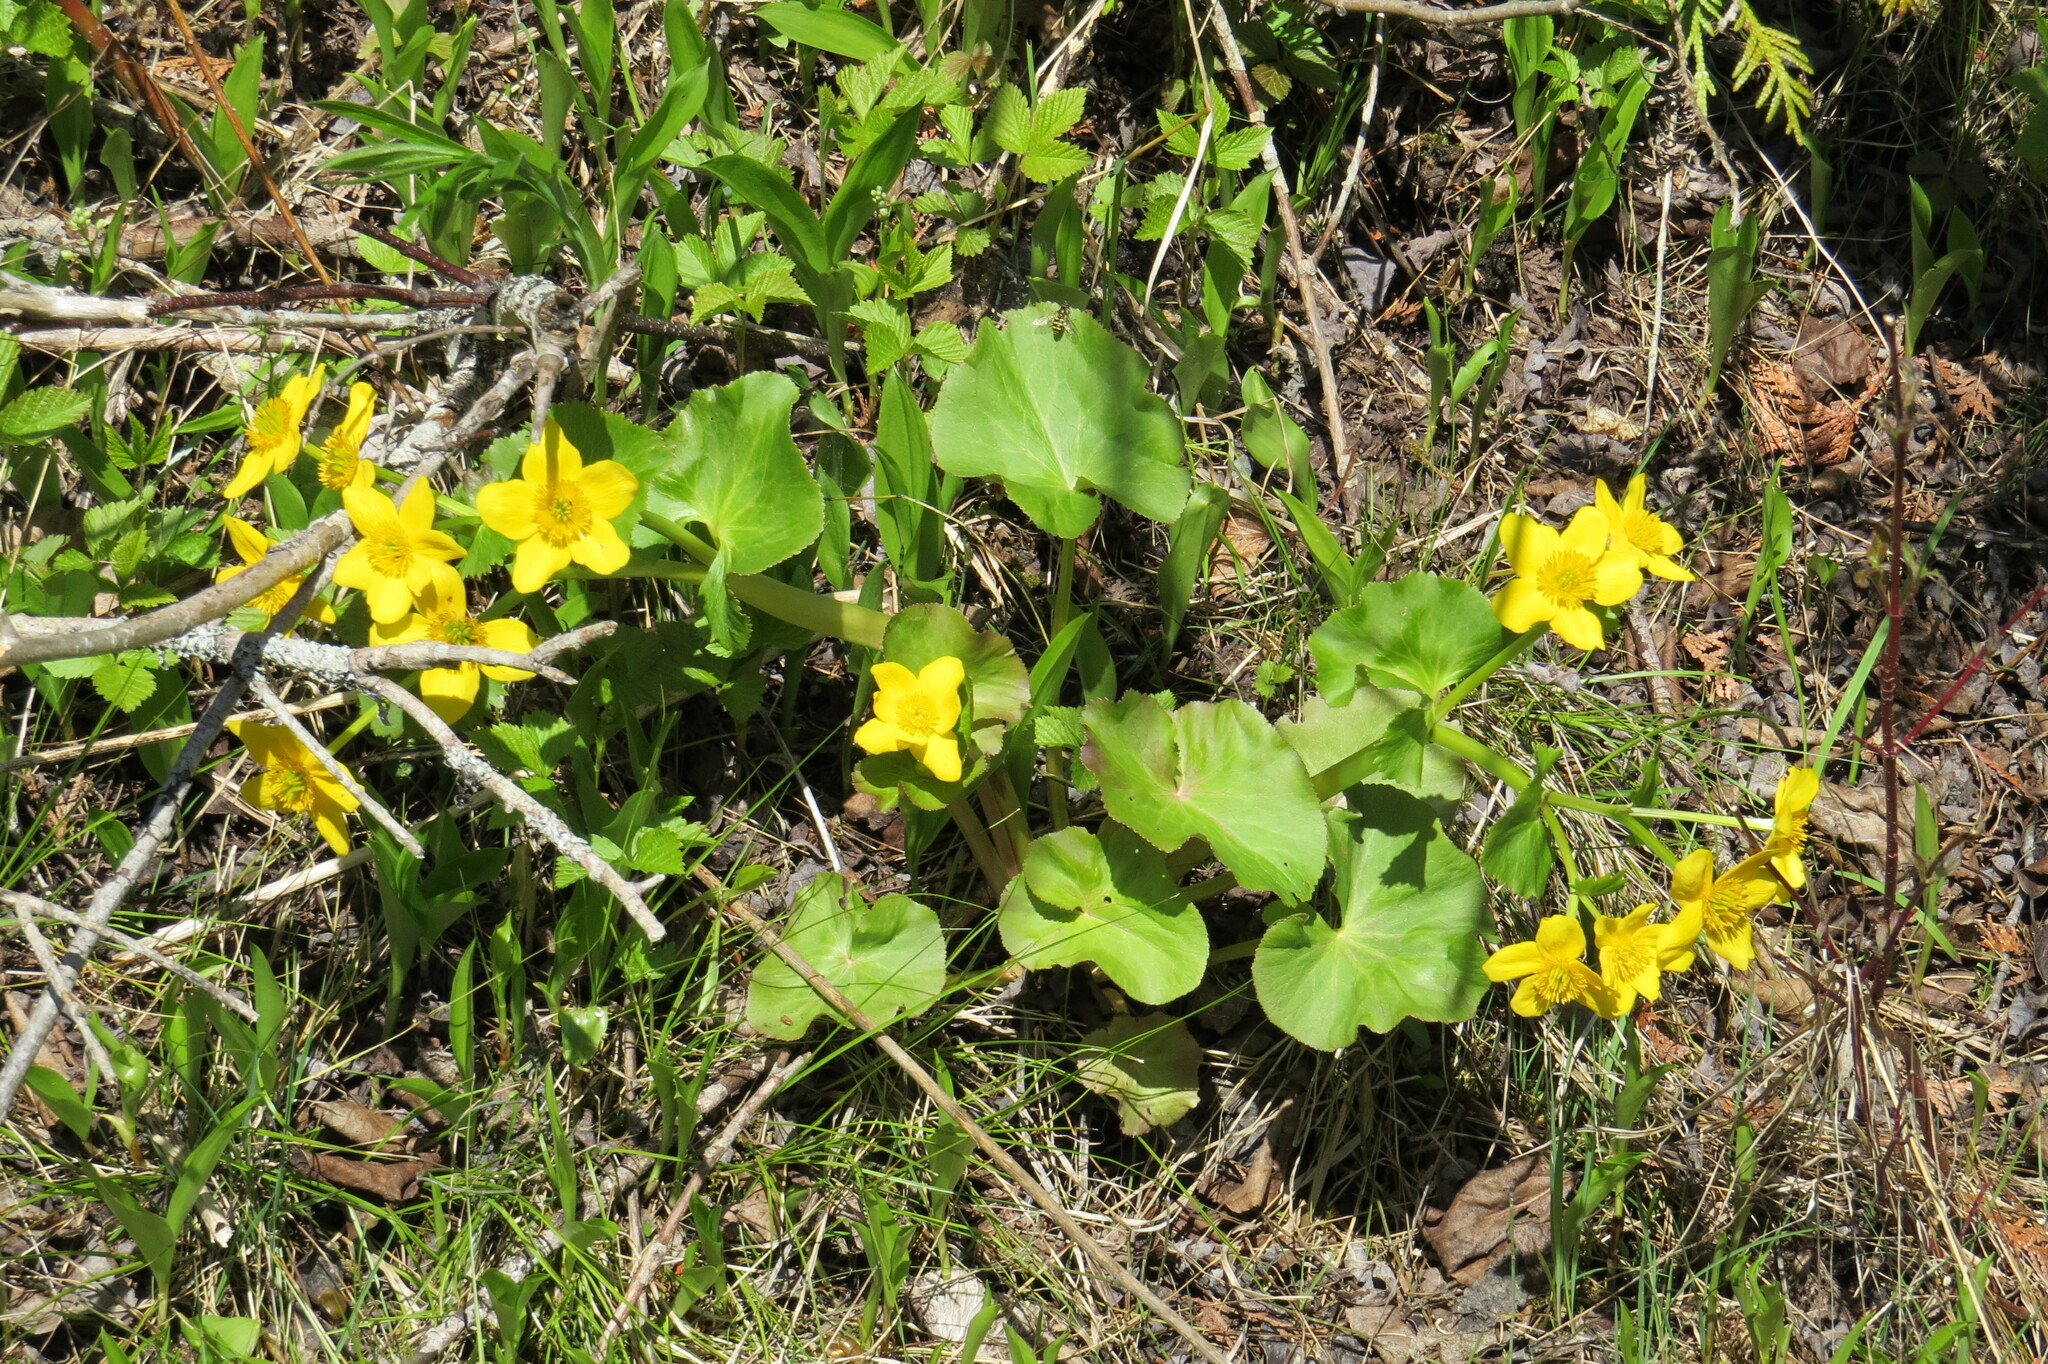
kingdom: Plantae
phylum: Tracheophyta
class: Magnoliopsida
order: Ranunculales
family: Ranunculaceae
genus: Caltha
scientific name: Caltha palustris
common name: Marsh marigold
